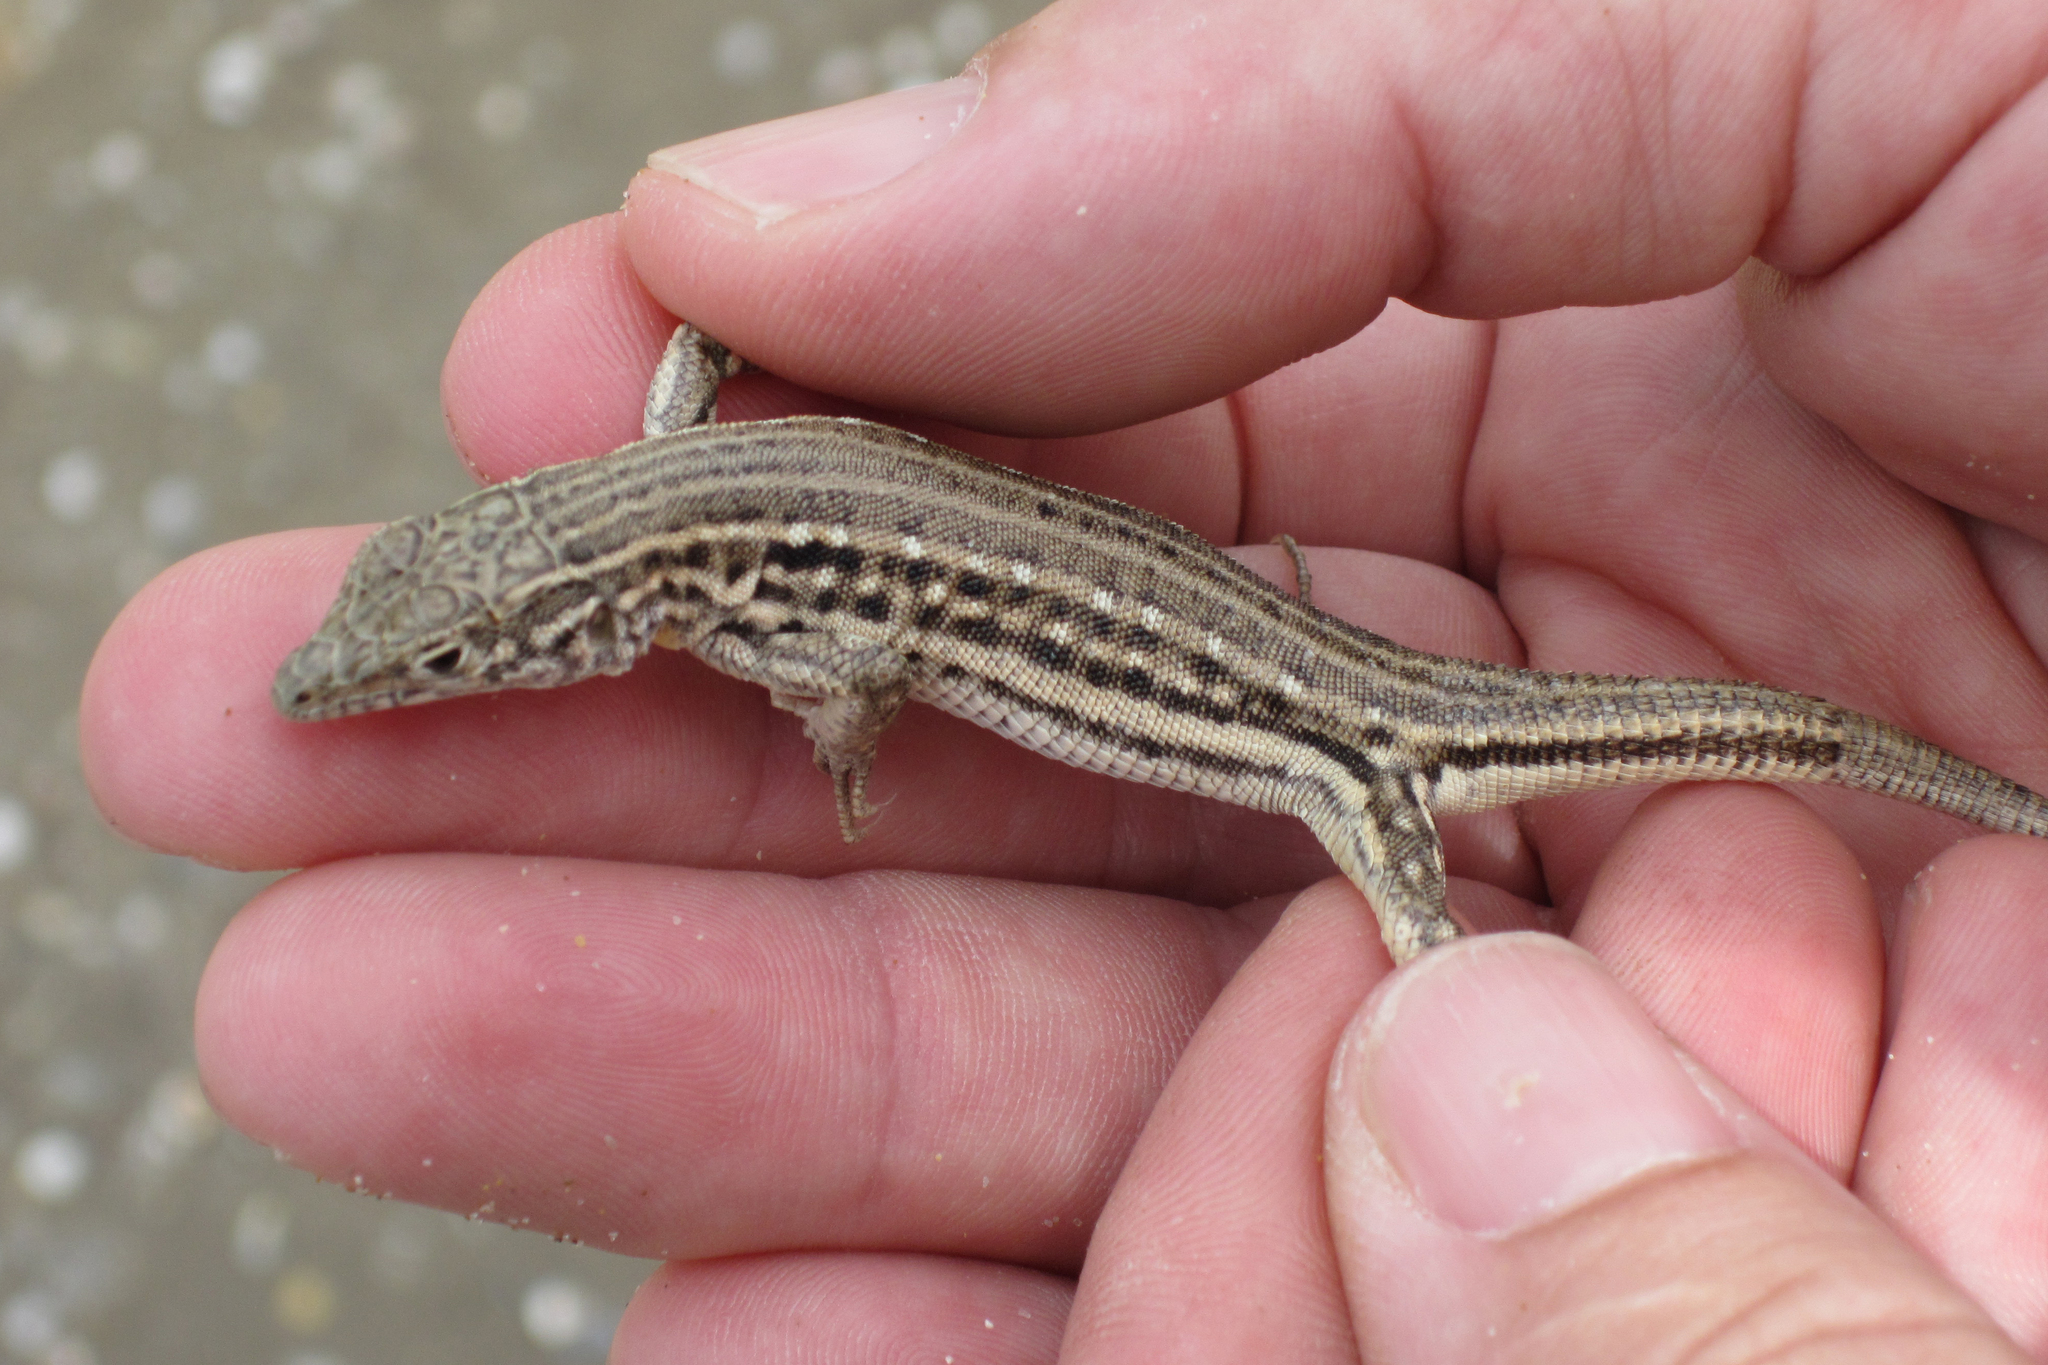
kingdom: Animalia
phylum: Chordata
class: Squamata
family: Lacertidae
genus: Eremias
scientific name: Eremias velox
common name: Central asian racerunner
